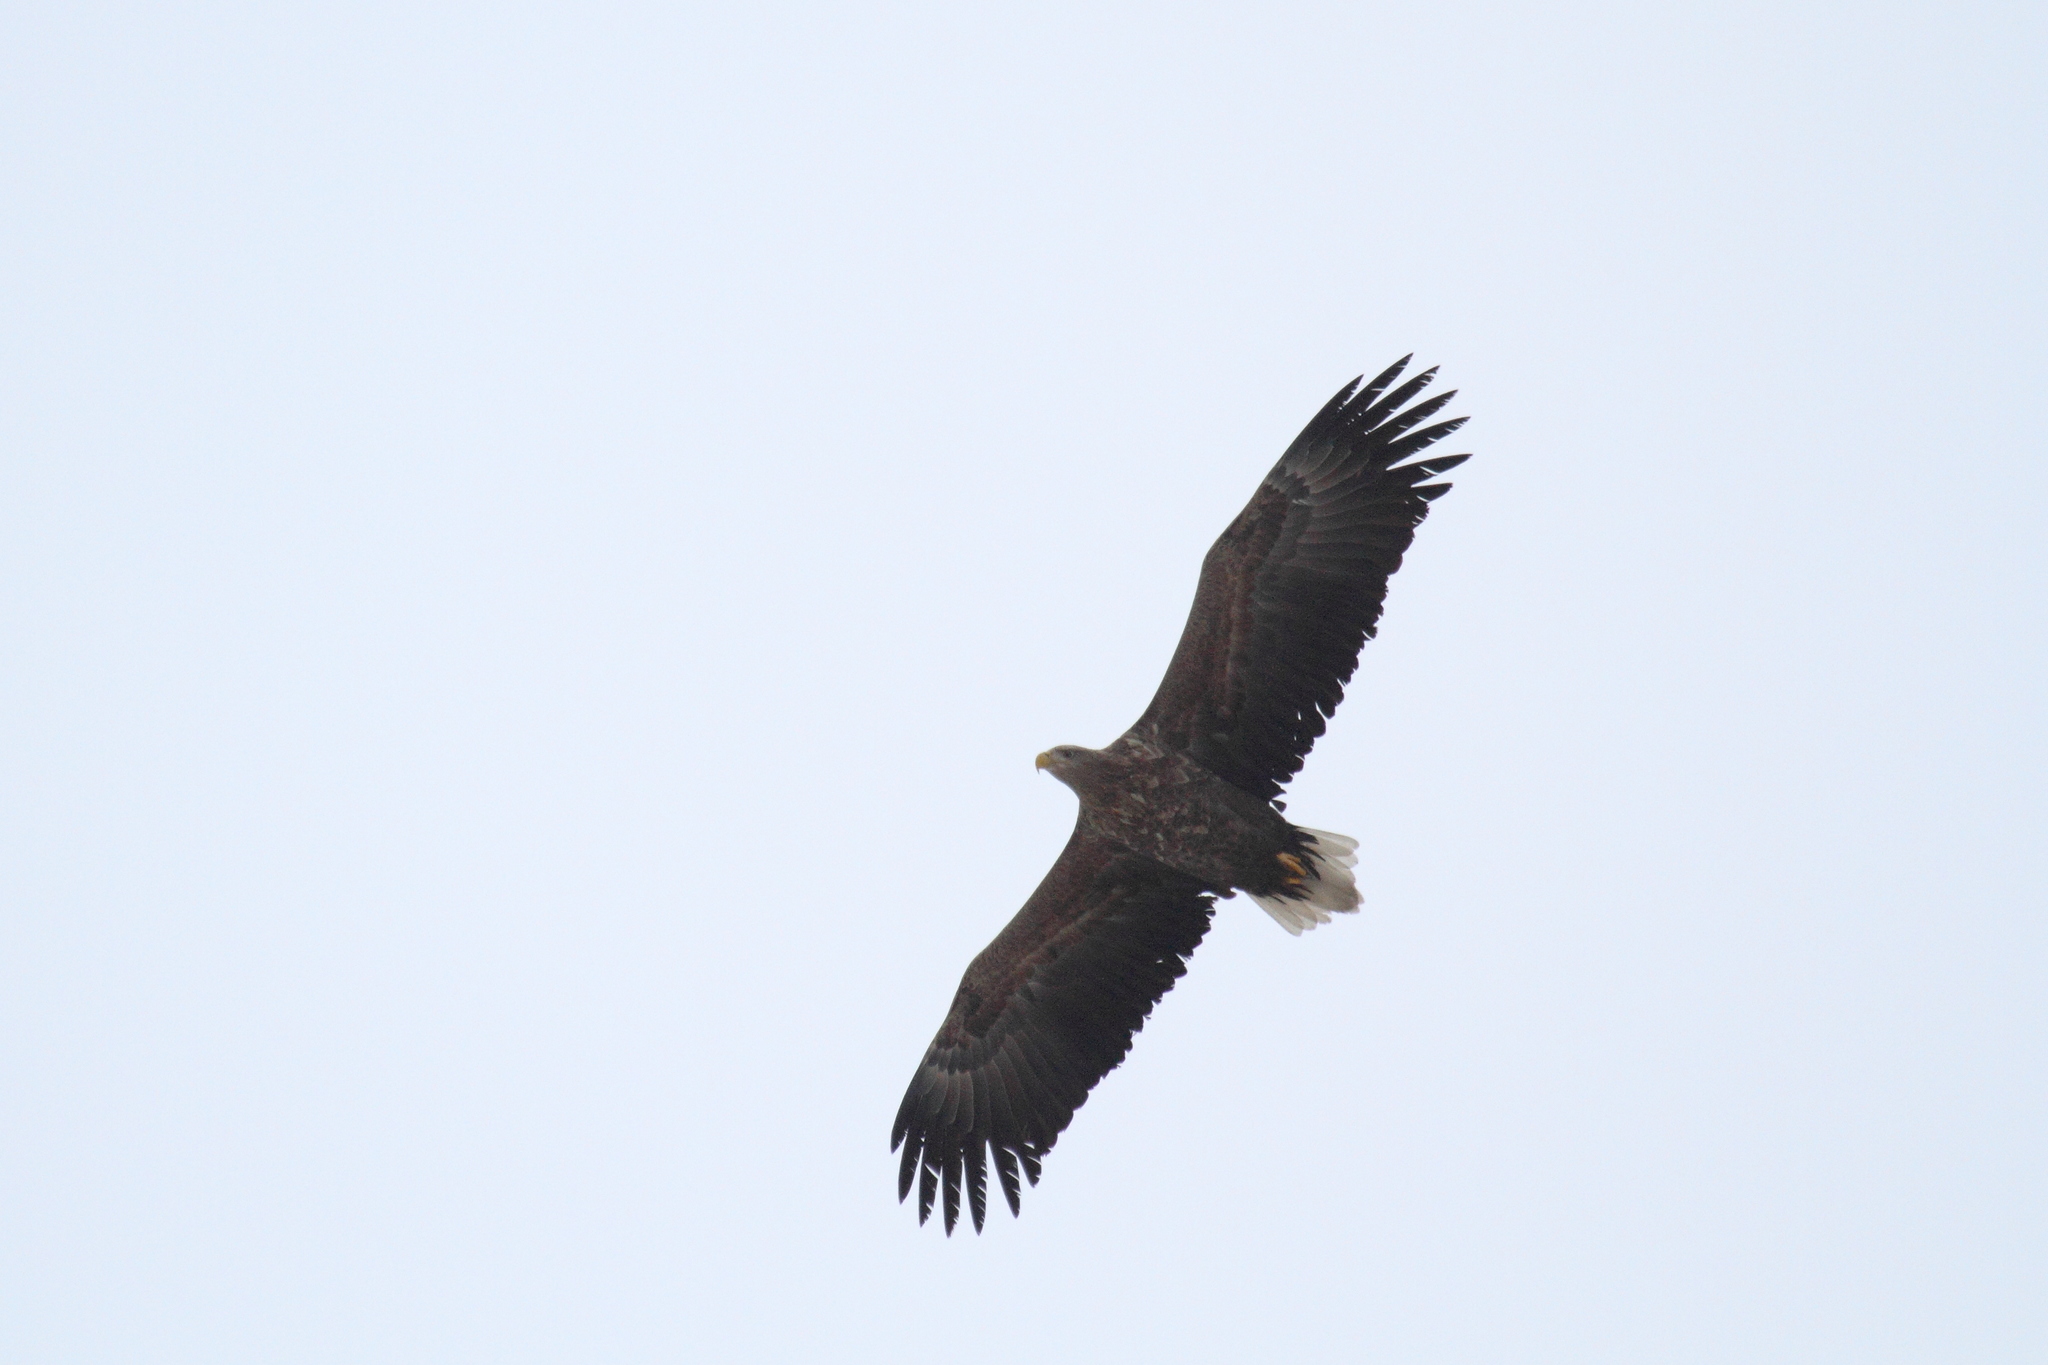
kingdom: Animalia
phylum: Chordata
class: Aves
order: Accipitriformes
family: Accipitridae
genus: Haliaeetus
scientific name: Haliaeetus albicilla
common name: White-tailed eagle
